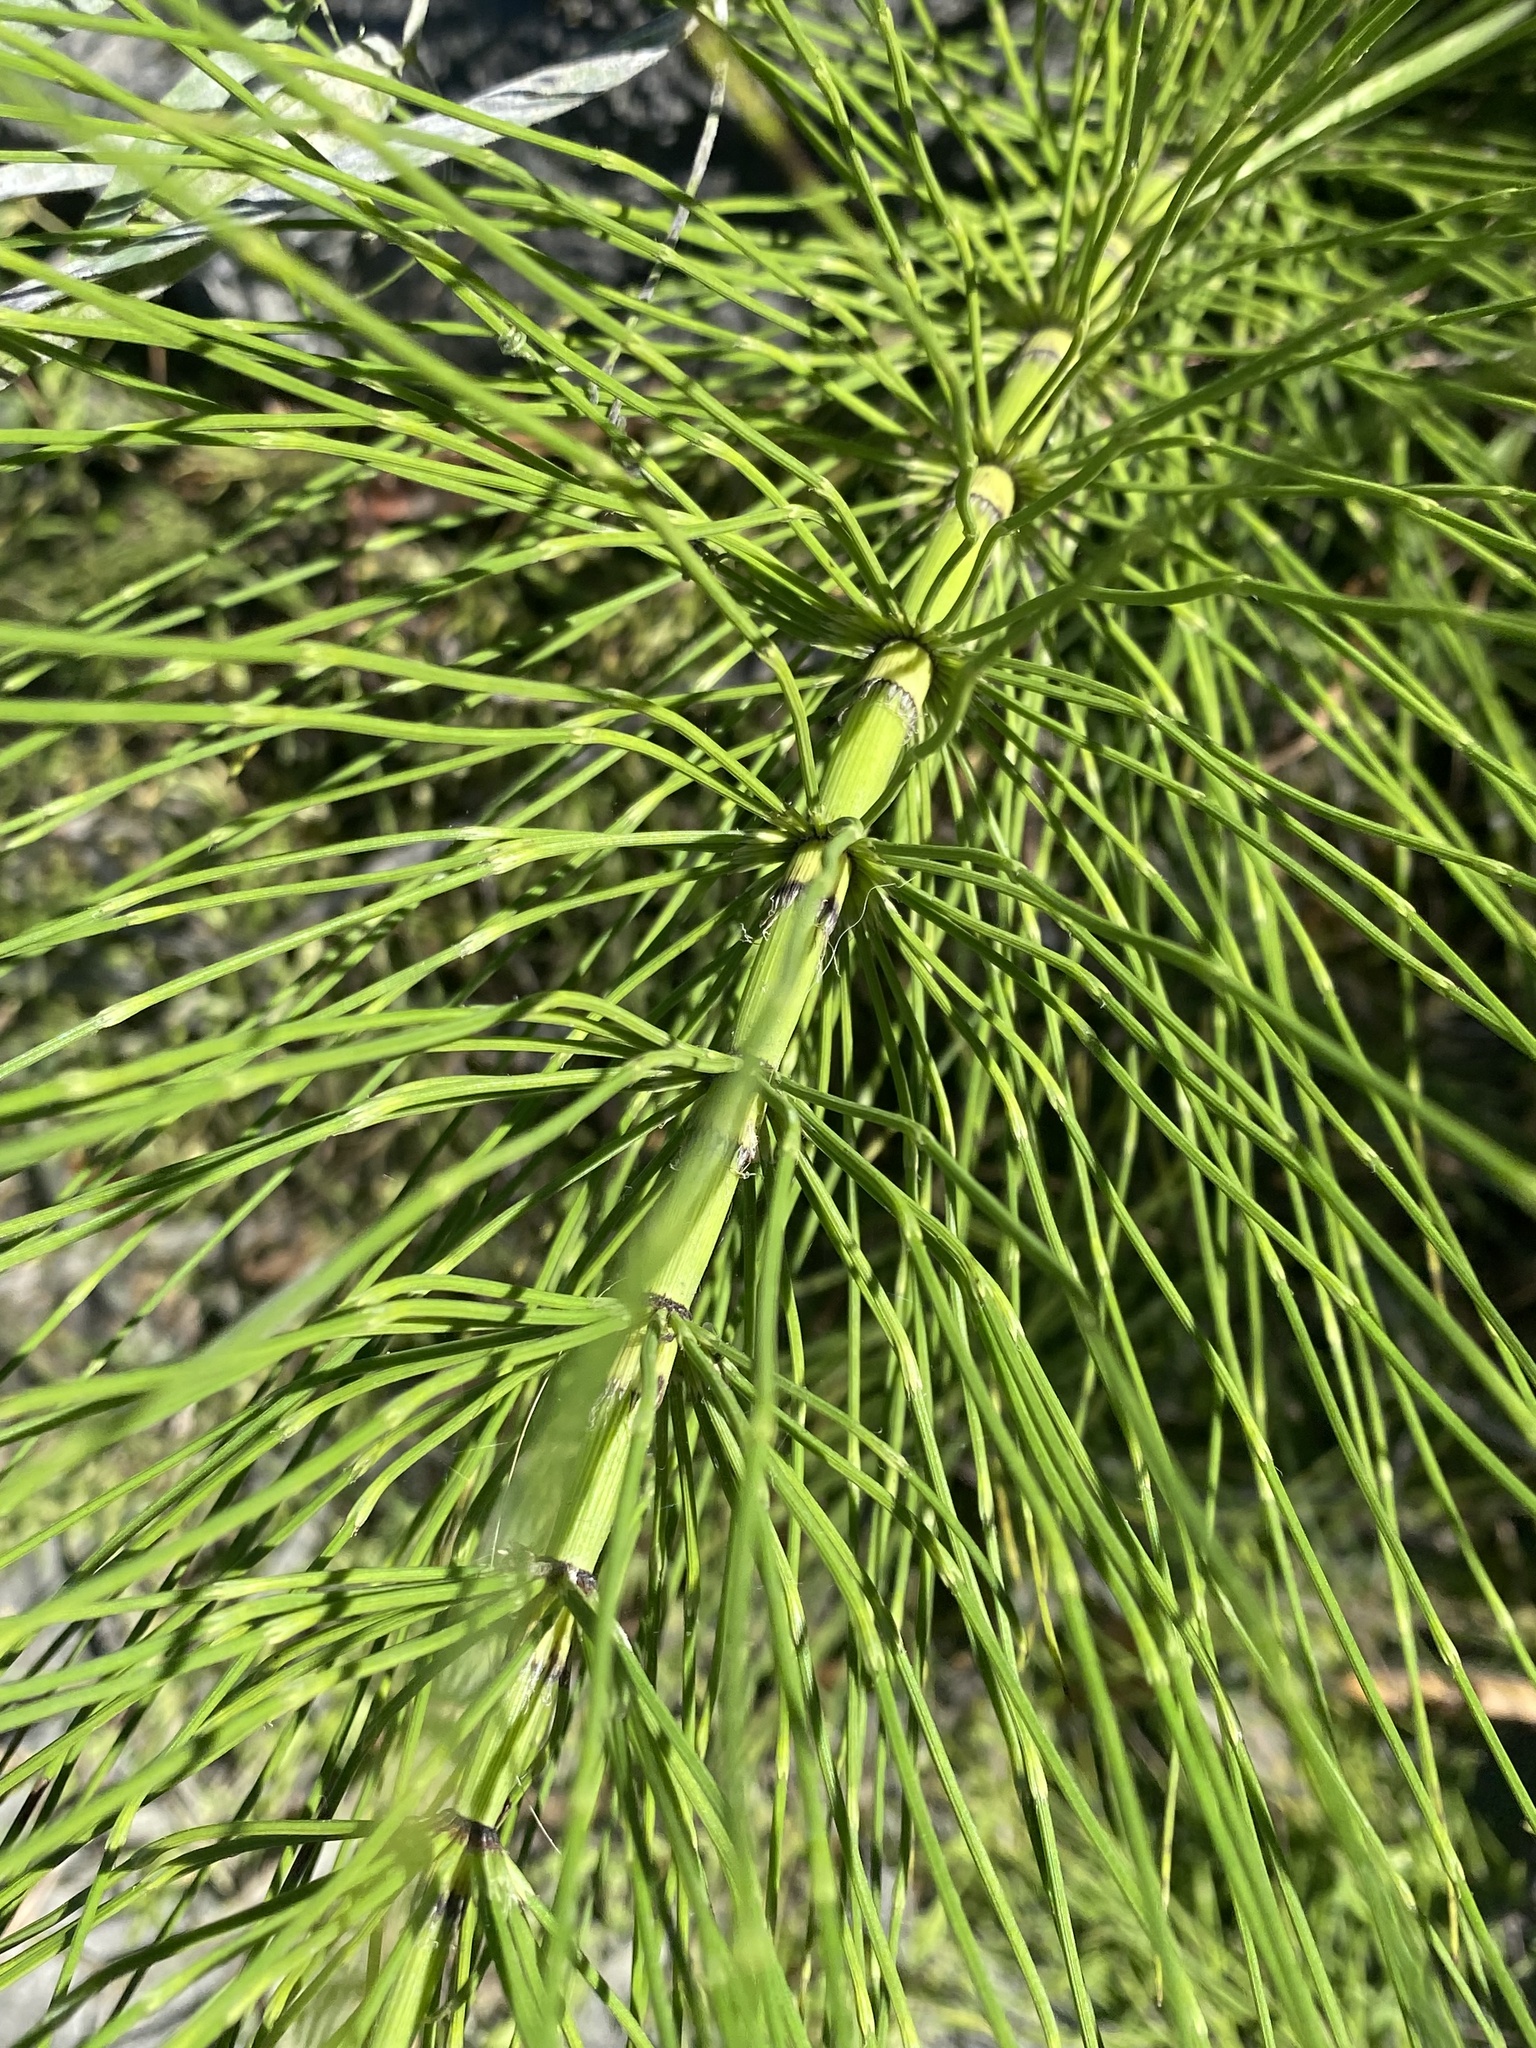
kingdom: Plantae
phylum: Tracheophyta
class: Polypodiopsida
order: Equisetales
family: Equisetaceae
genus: Equisetum
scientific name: Equisetum braunii
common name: Braun's horsetail
